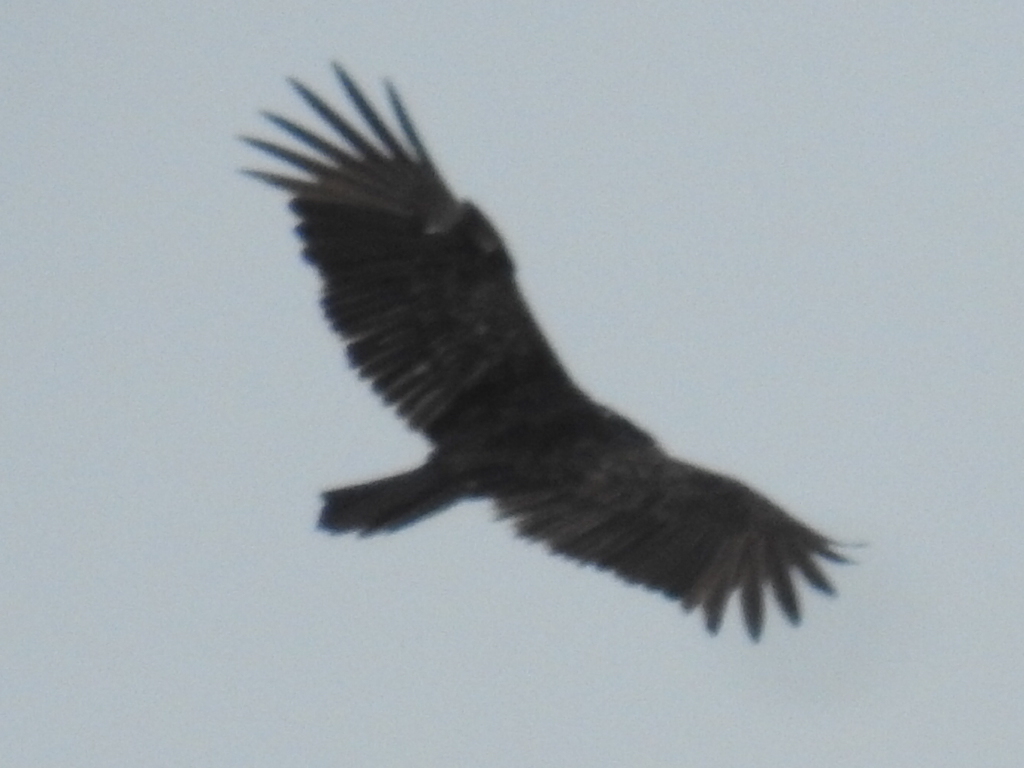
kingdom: Animalia
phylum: Chordata
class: Aves
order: Accipitriformes
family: Cathartidae
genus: Cathartes
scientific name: Cathartes aura
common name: Turkey vulture
